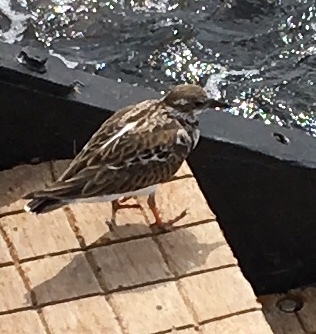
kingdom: Animalia
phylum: Chordata
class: Aves
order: Charadriiformes
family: Scolopacidae
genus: Arenaria
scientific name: Arenaria interpres
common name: Ruddy turnstone
